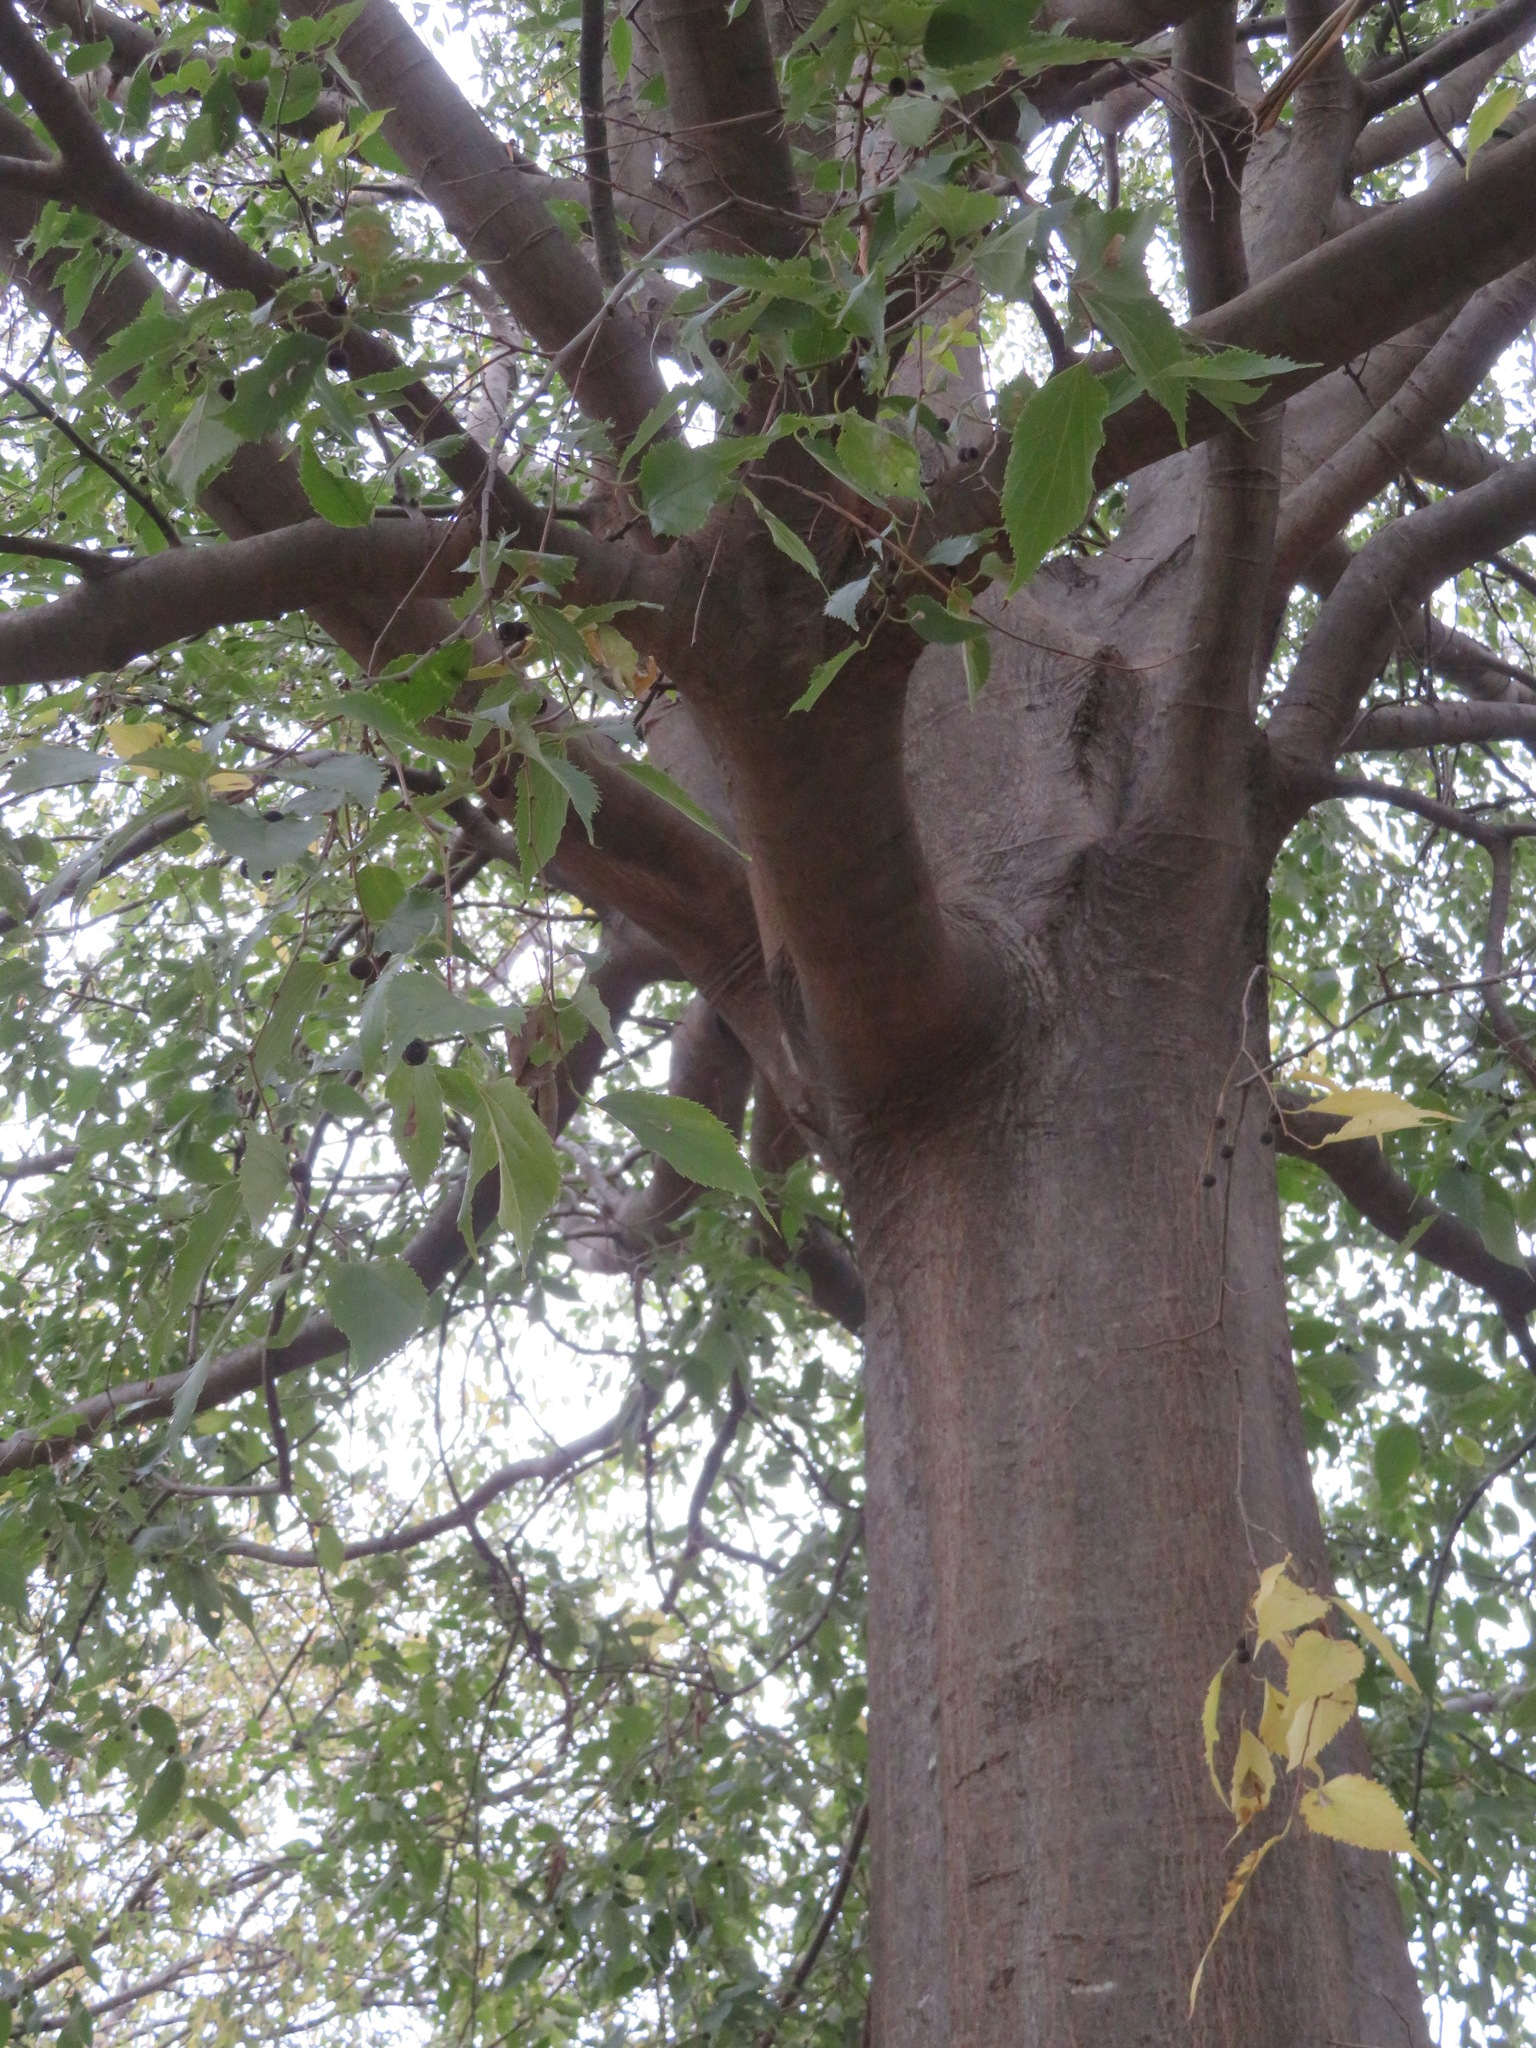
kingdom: Plantae
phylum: Tracheophyta
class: Magnoliopsida
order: Rosales
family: Cannabaceae
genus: Celtis
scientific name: Celtis australis
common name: European hackberry
